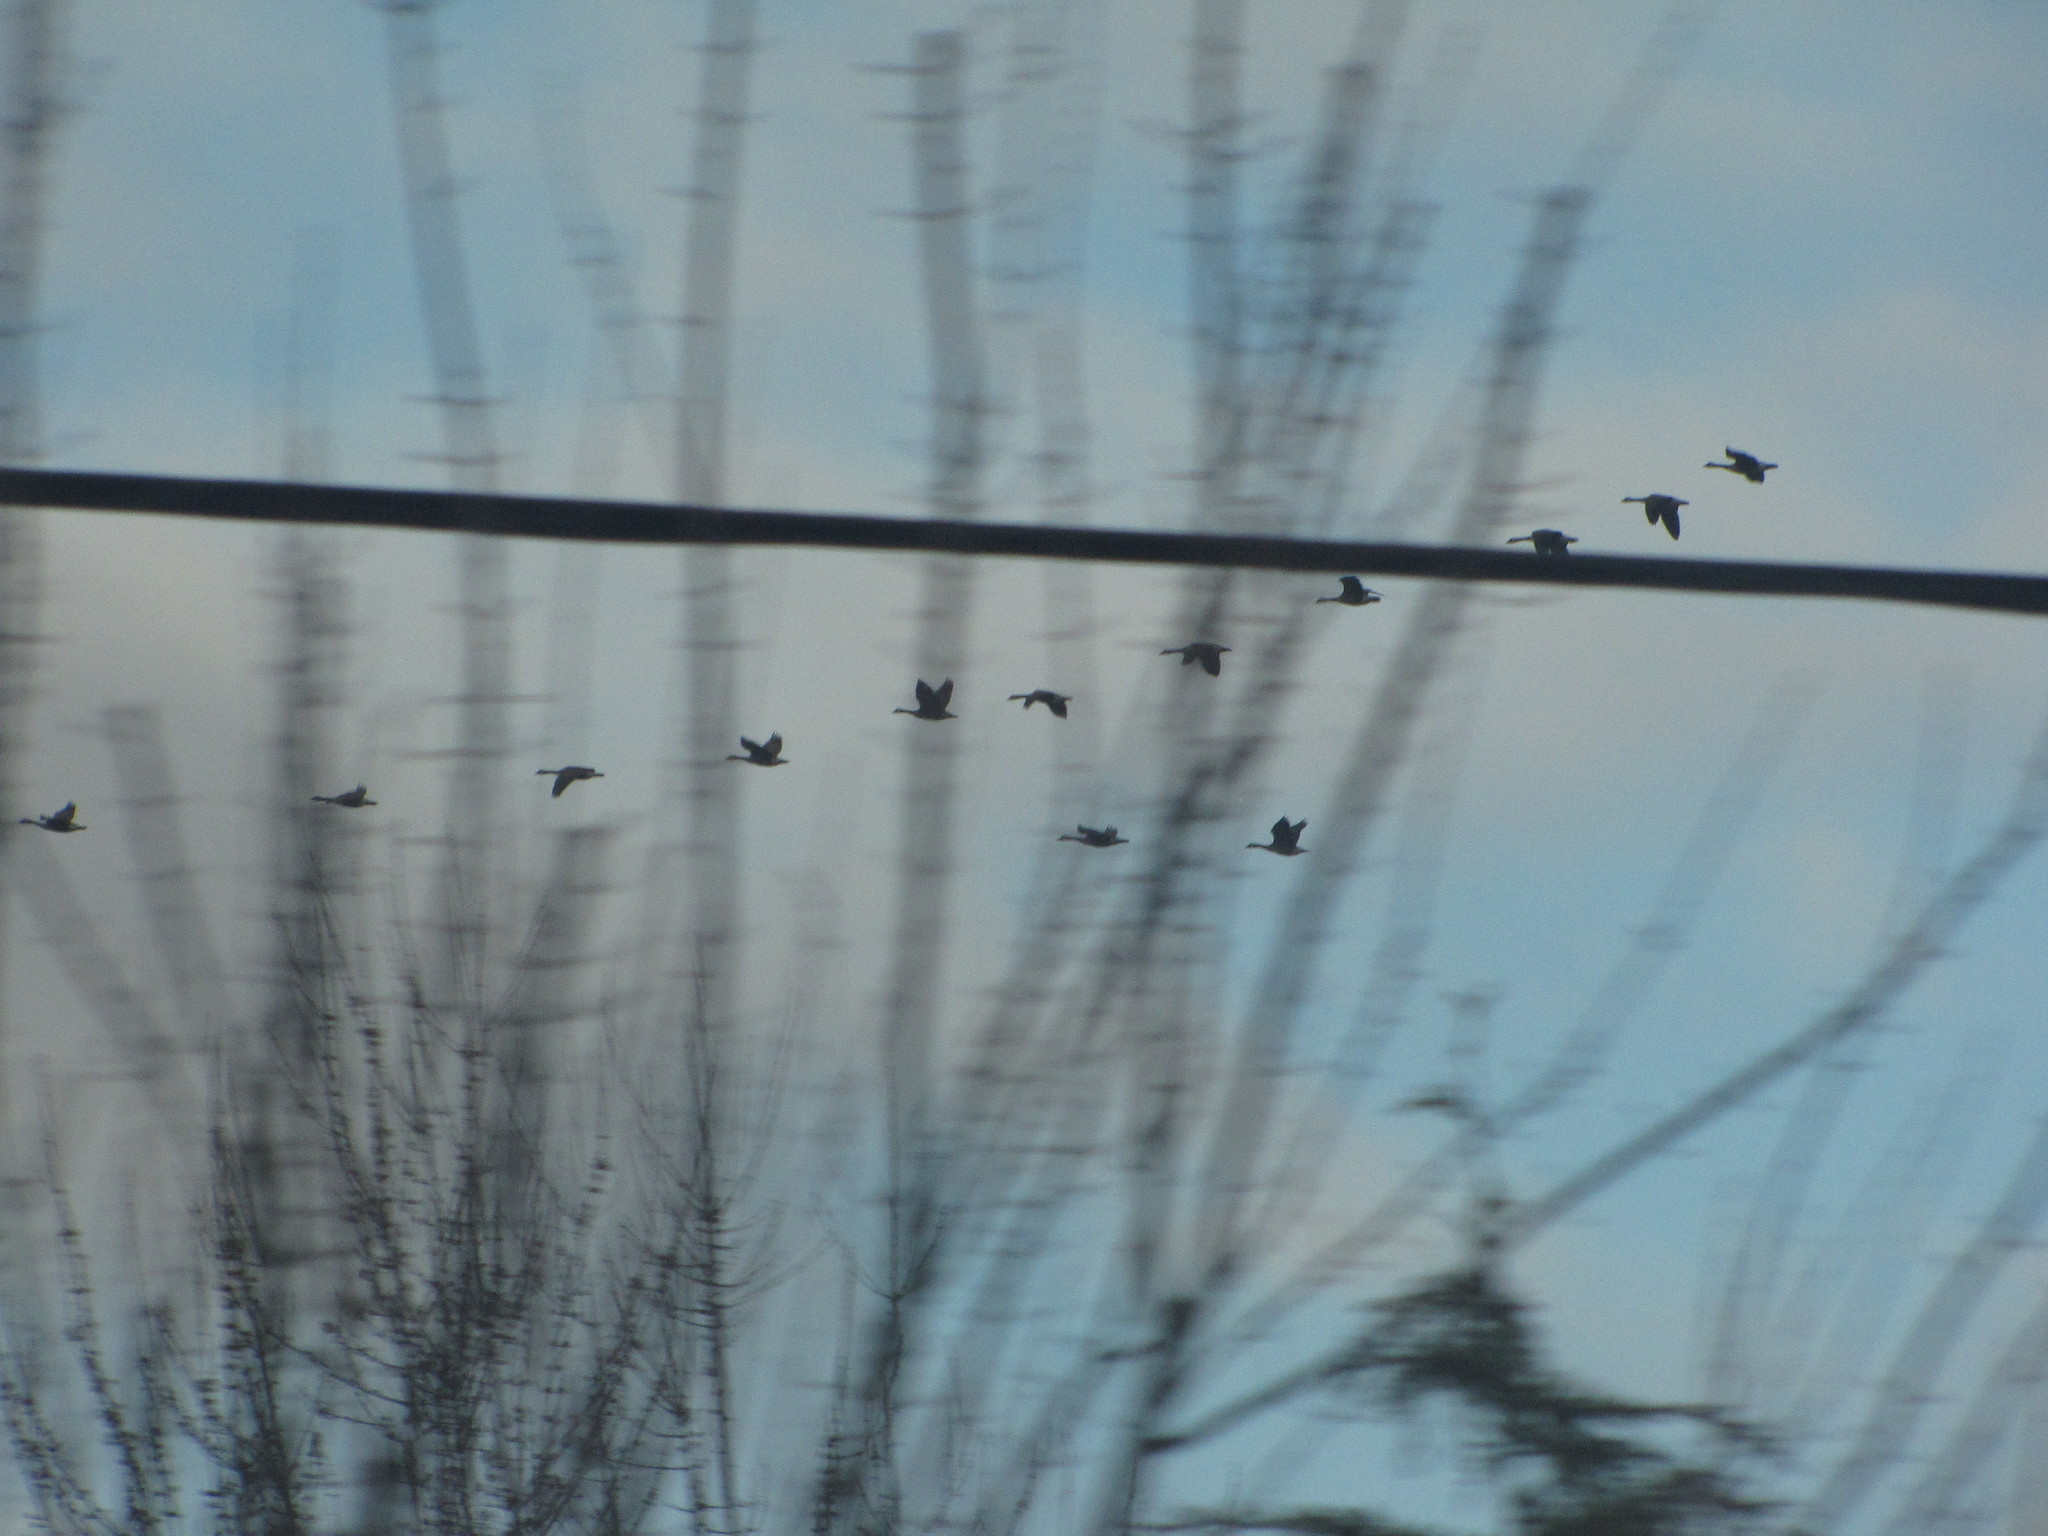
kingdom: Animalia
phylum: Chordata
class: Aves
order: Anseriformes
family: Anatidae
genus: Branta
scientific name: Branta canadensis
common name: Canada goose
